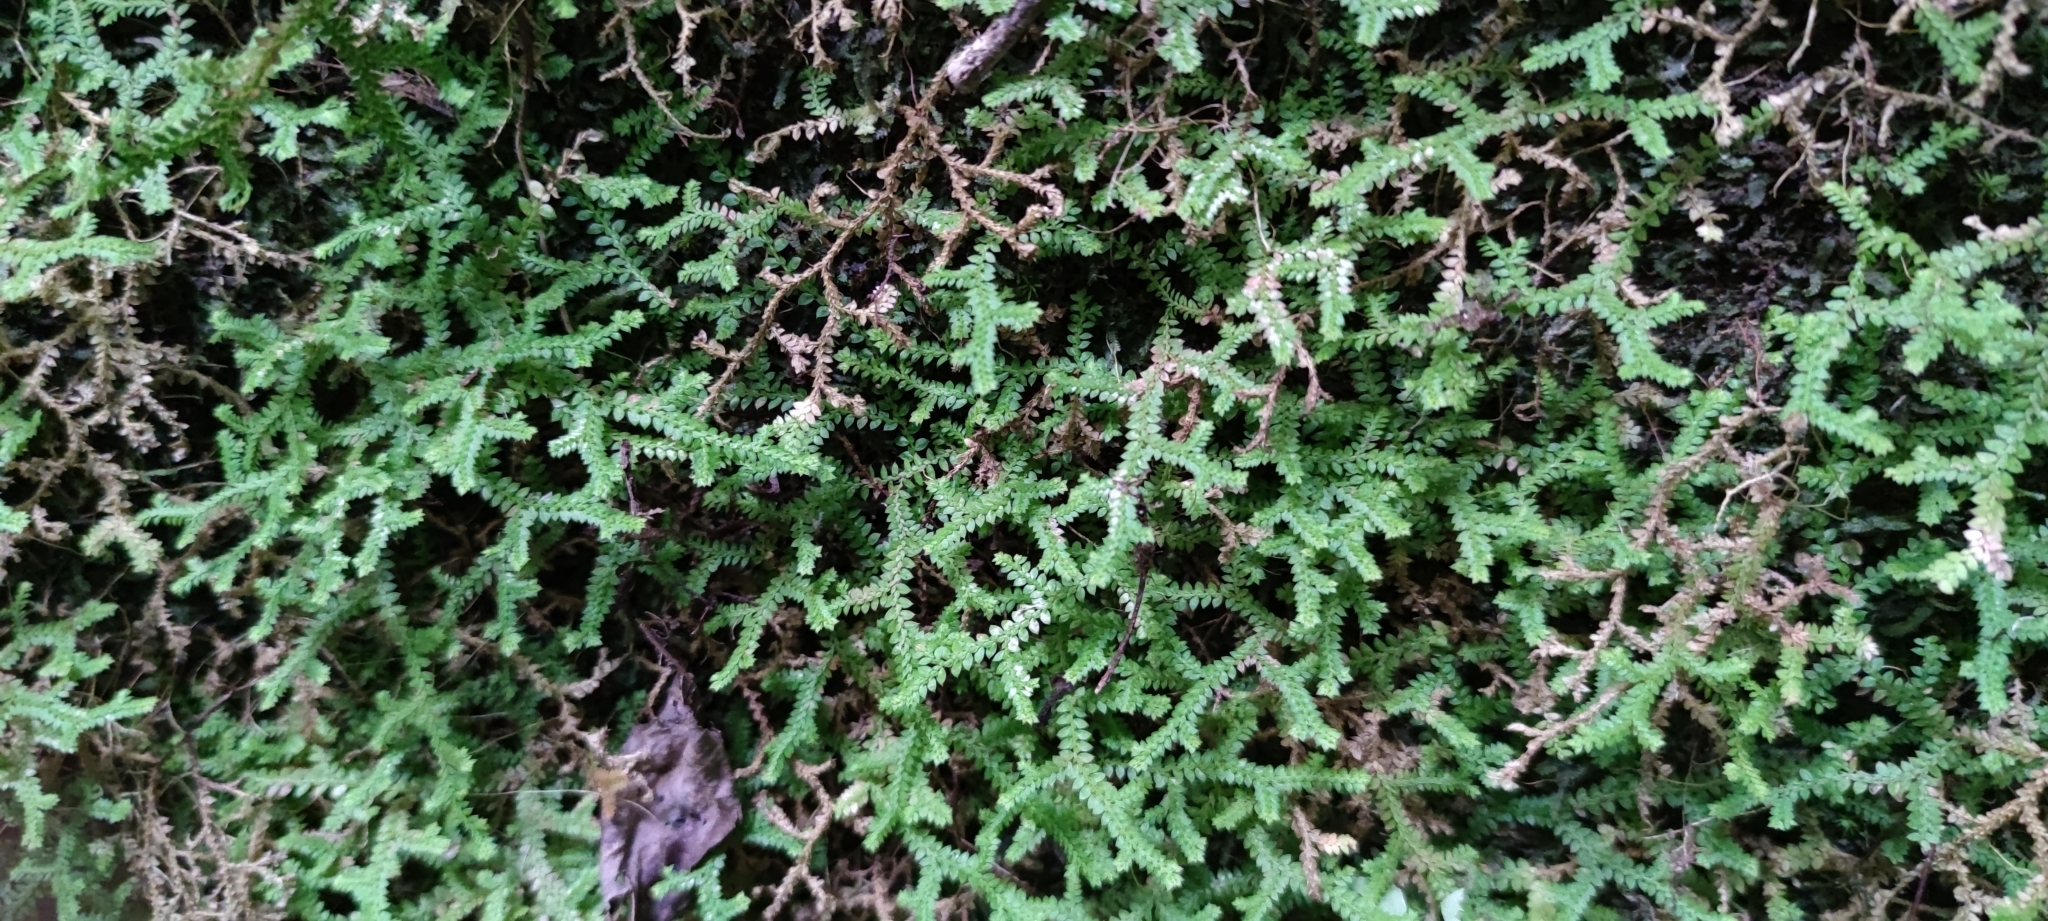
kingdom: Plantae
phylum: Tracheophyta
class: Lycopodiopsida
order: Selaginellales
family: Selaginellaceae
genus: Selaginella
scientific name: Selaginella denticulata
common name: Toothed-leaved clubmoss
